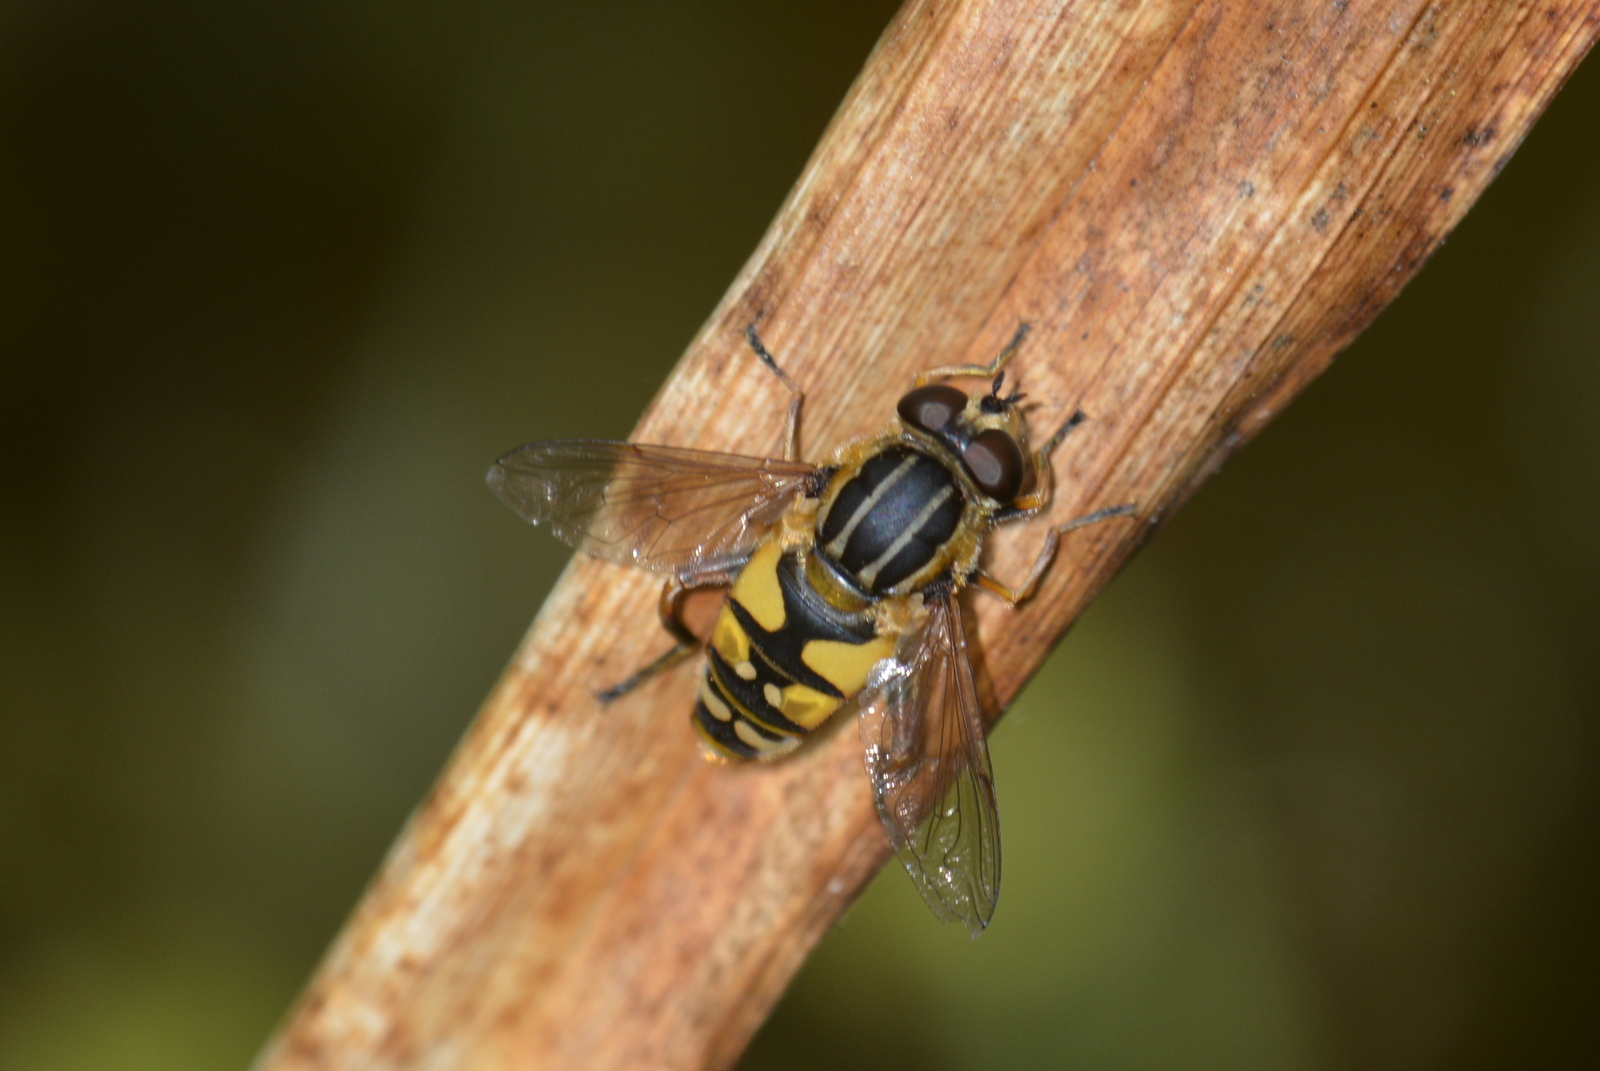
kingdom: Animalia
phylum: Arthropoda
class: Insecta
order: Diptera
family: Syrphidae
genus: Helophilus
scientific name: Helophilus pendulus
